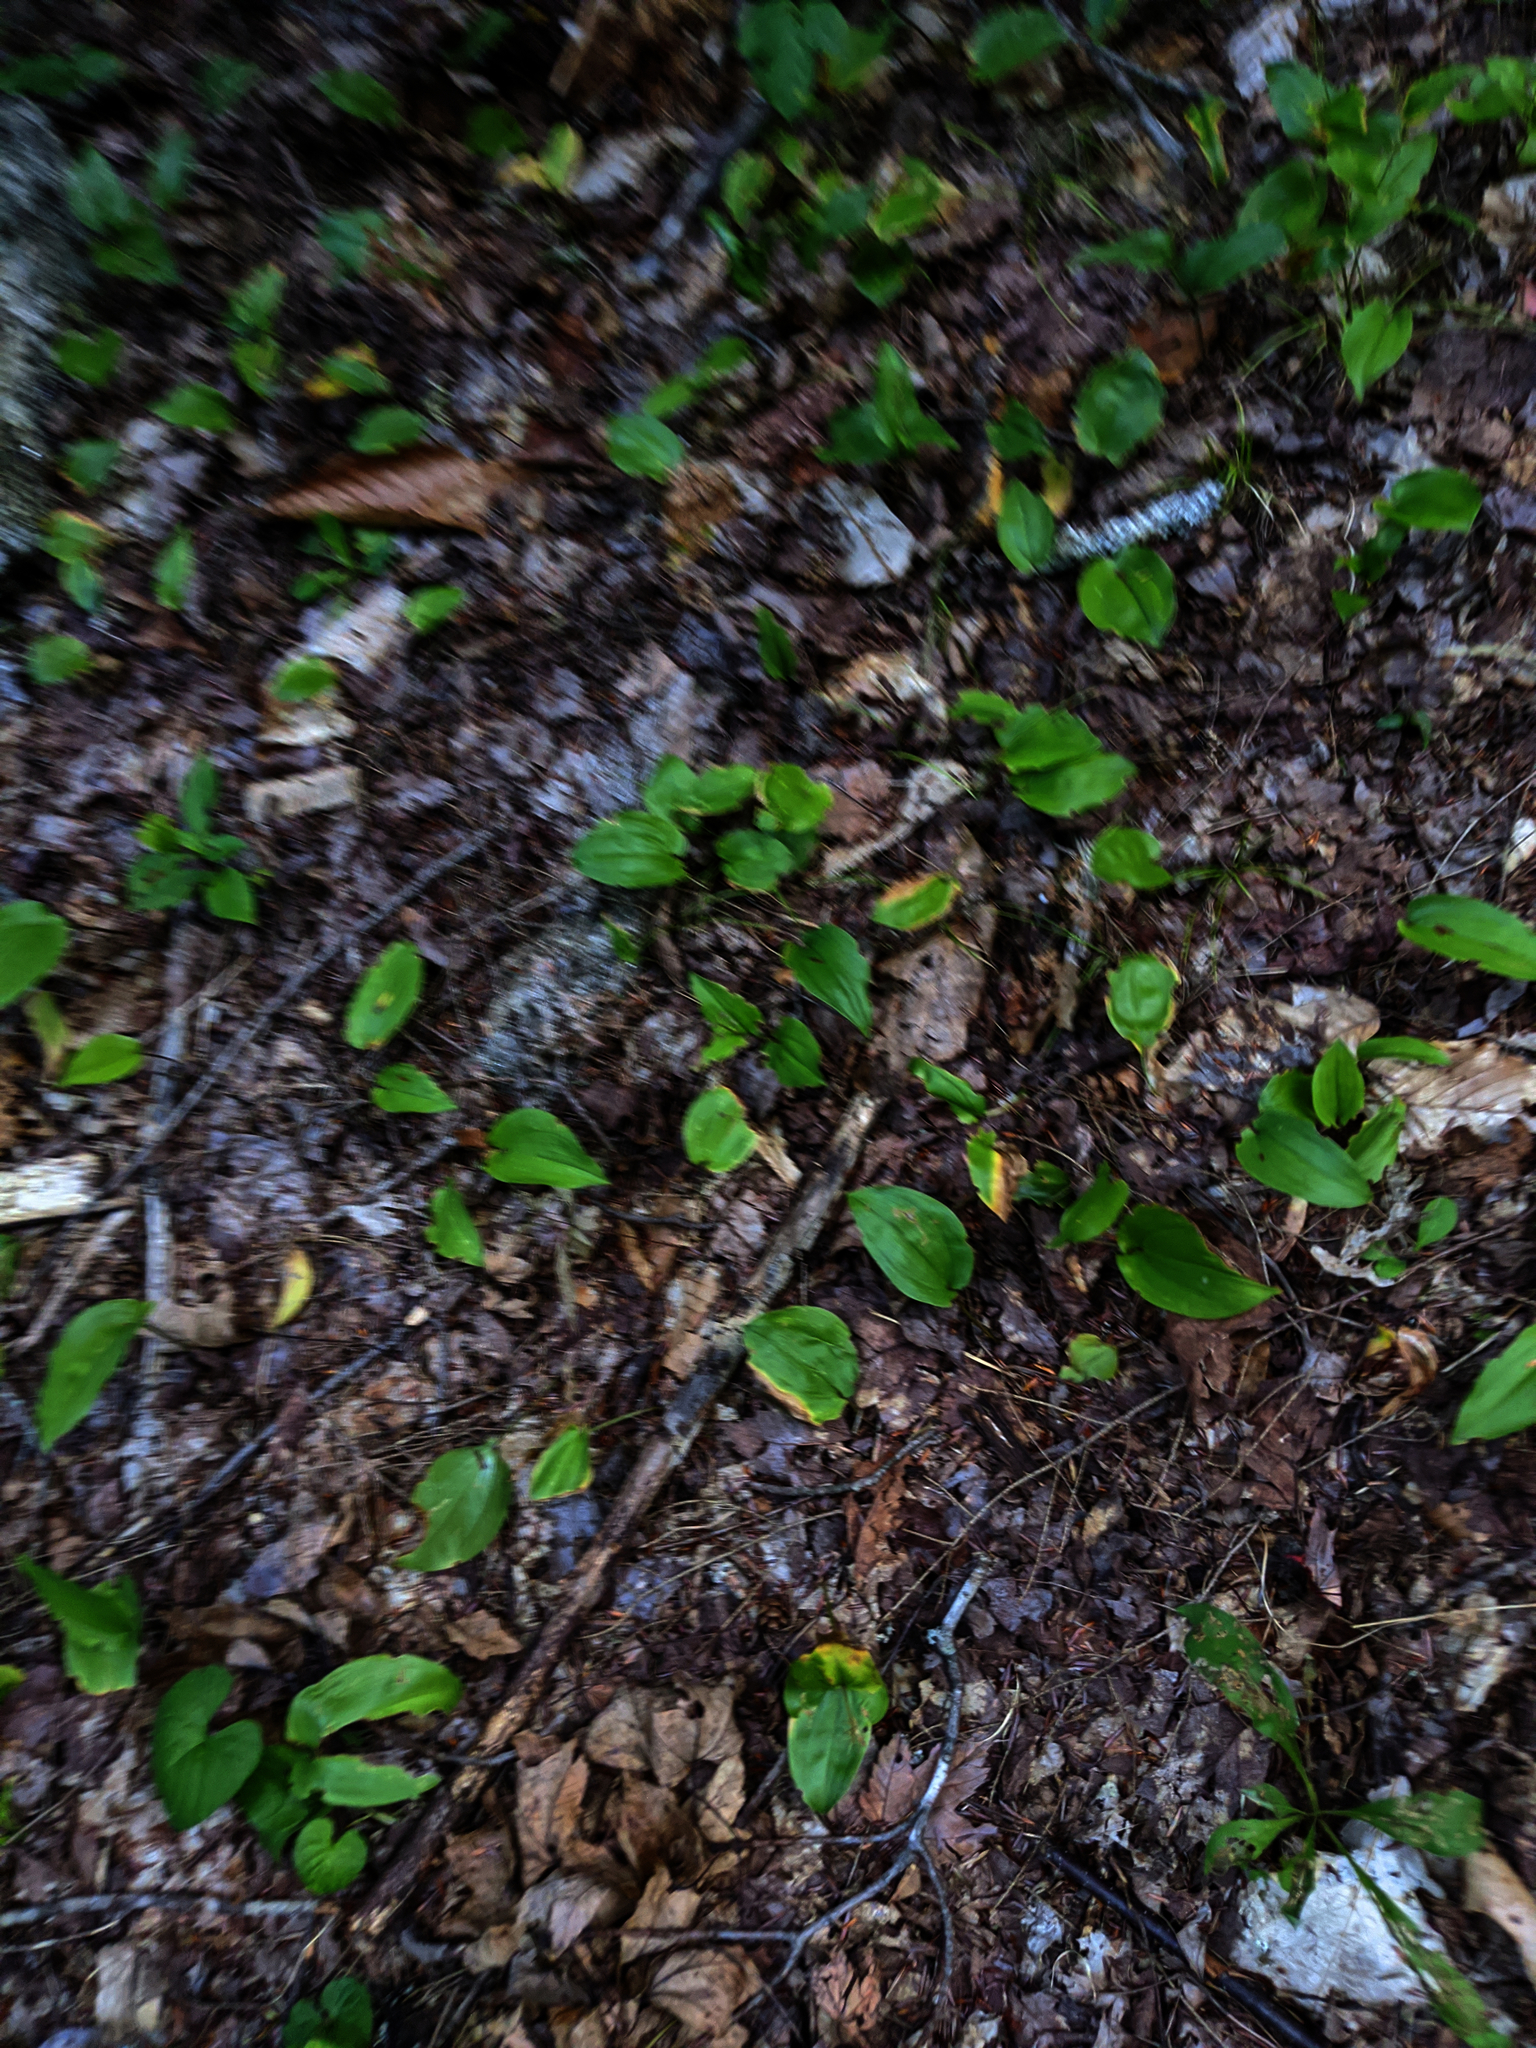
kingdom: Plantae
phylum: Tracheophyta
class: Liliopsida
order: Asparagales
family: Asparagaceae
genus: Maianthemum
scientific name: Maianthemum canadense
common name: False lily-of-the-valley
